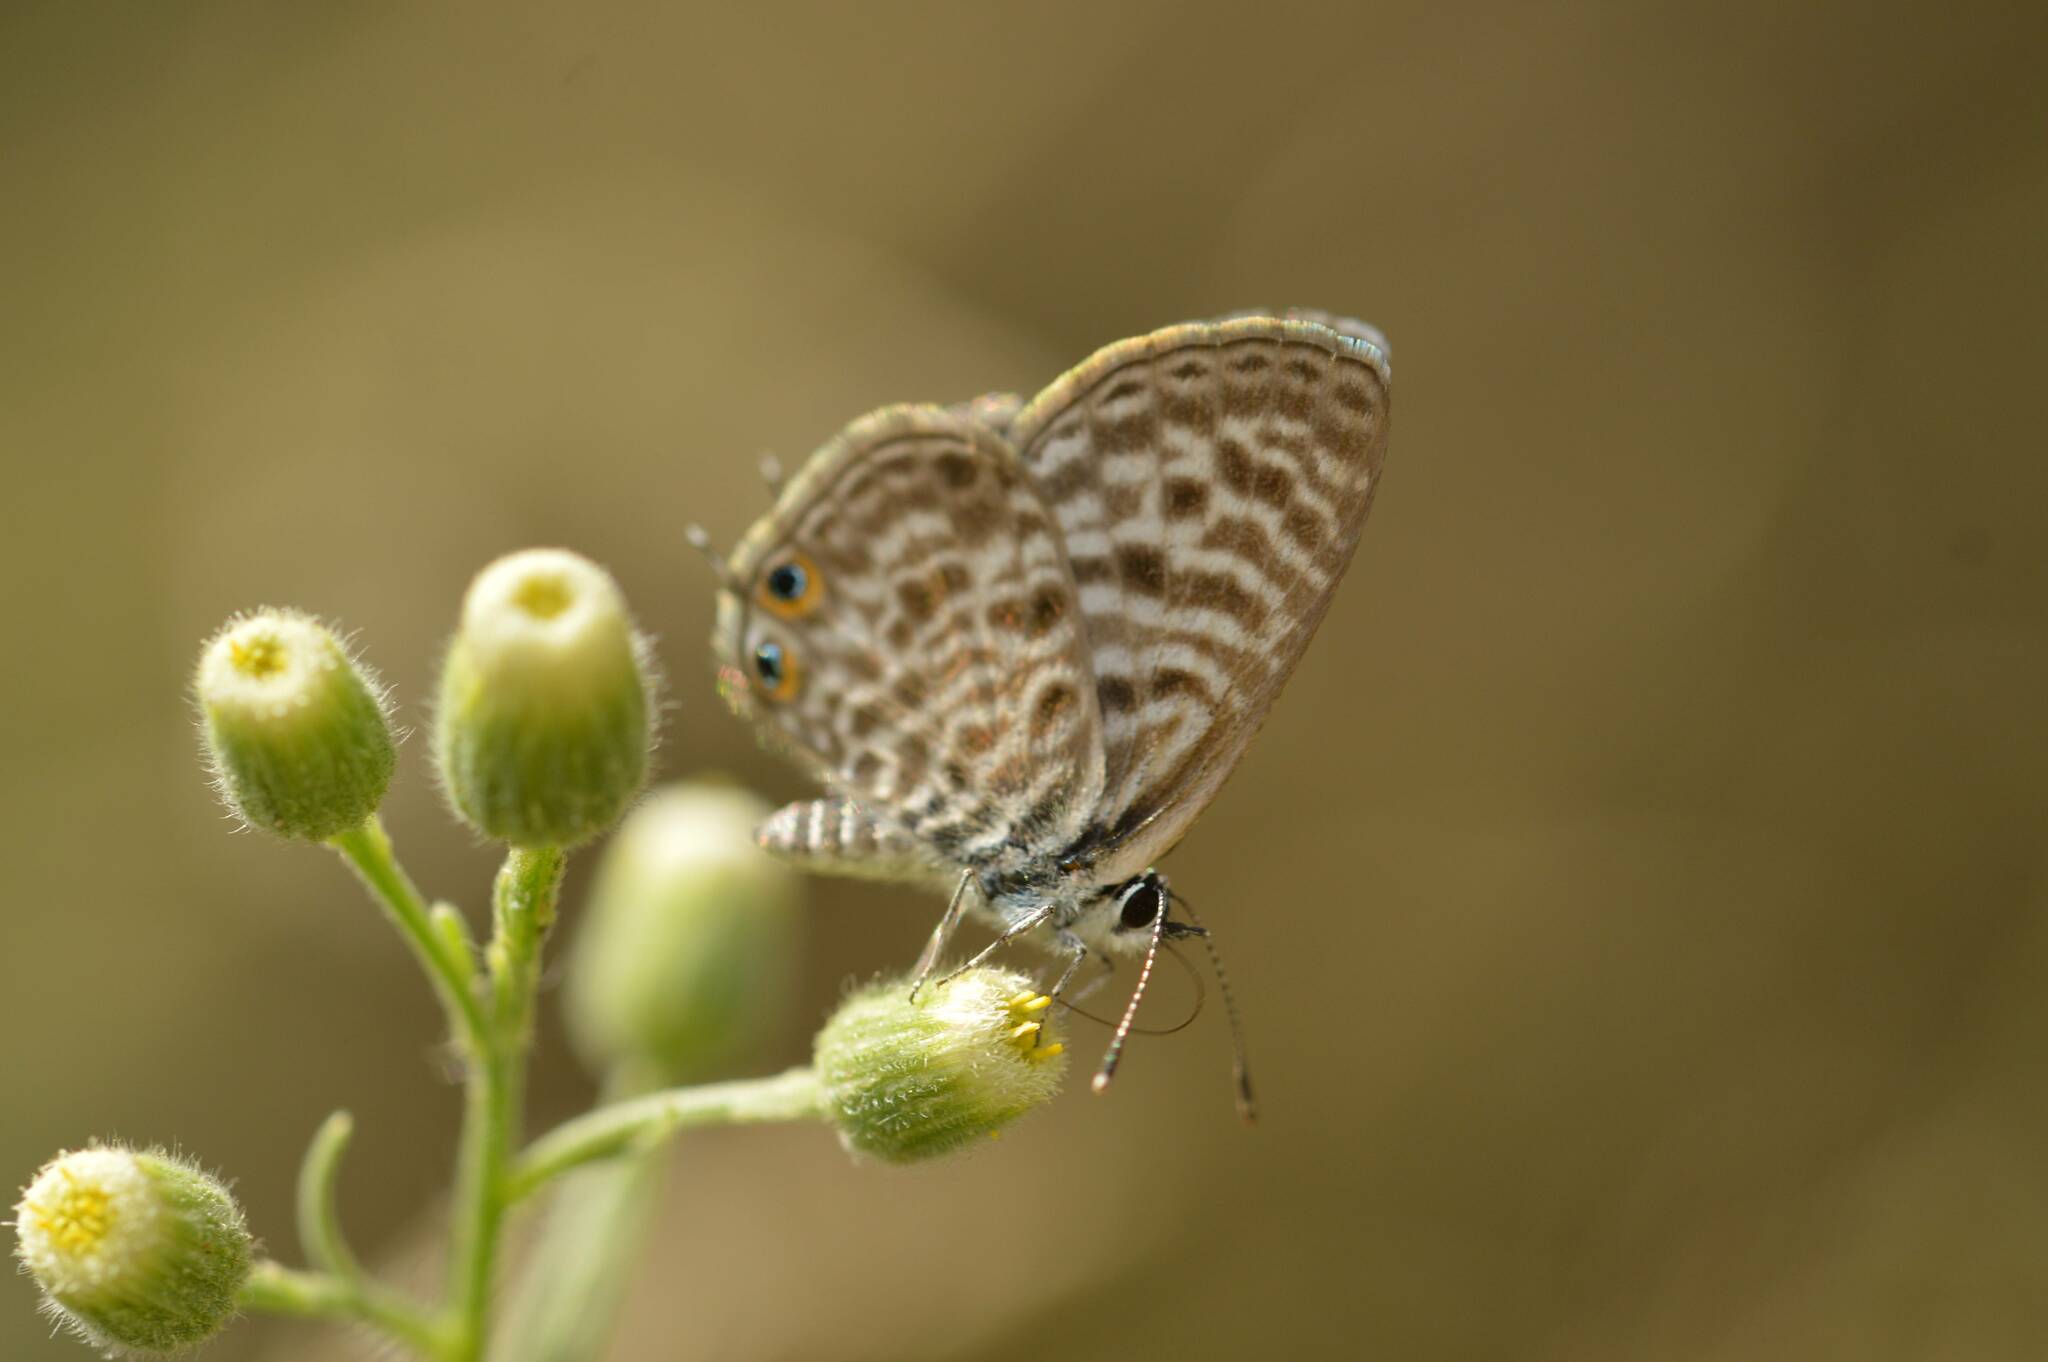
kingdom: Animalia
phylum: Arthropoda
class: Insecta
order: Lepidoptera
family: Lycaenidae
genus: Leptotes
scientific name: Leptotes pirithous
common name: Lang's short-tailed blue
